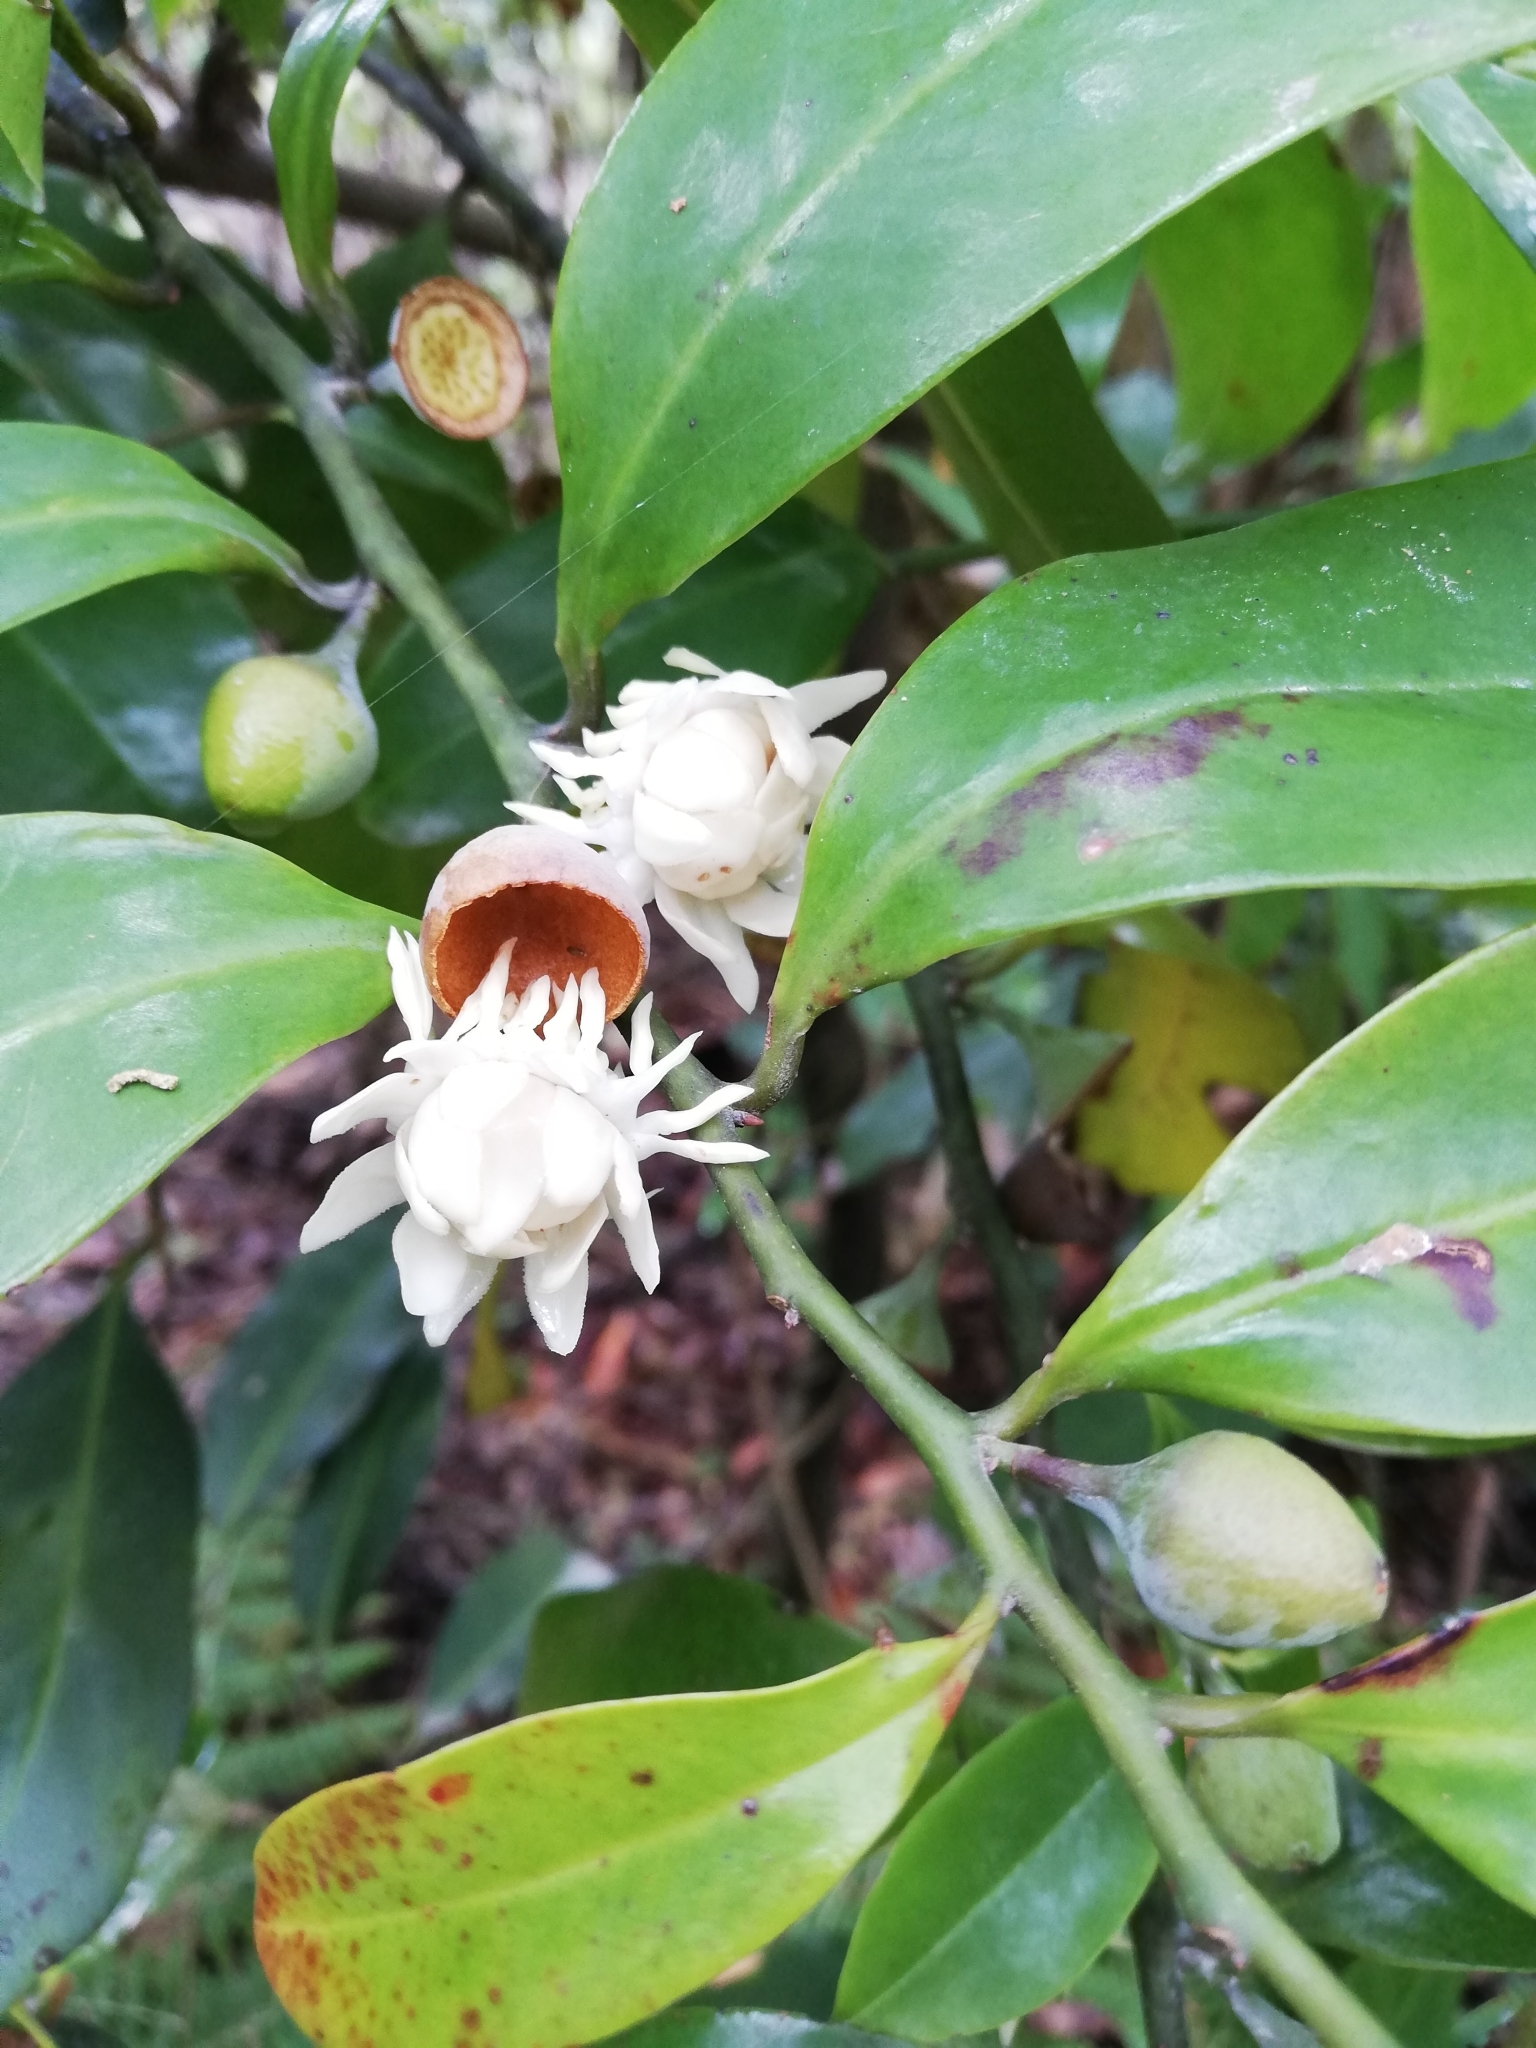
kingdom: Plantae
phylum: Tracheophyta
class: Magnoliopsida
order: Magnoliales
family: Eupomatiaceae
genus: Eupomatia
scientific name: Eupomatia laurina
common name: Bolwarra
